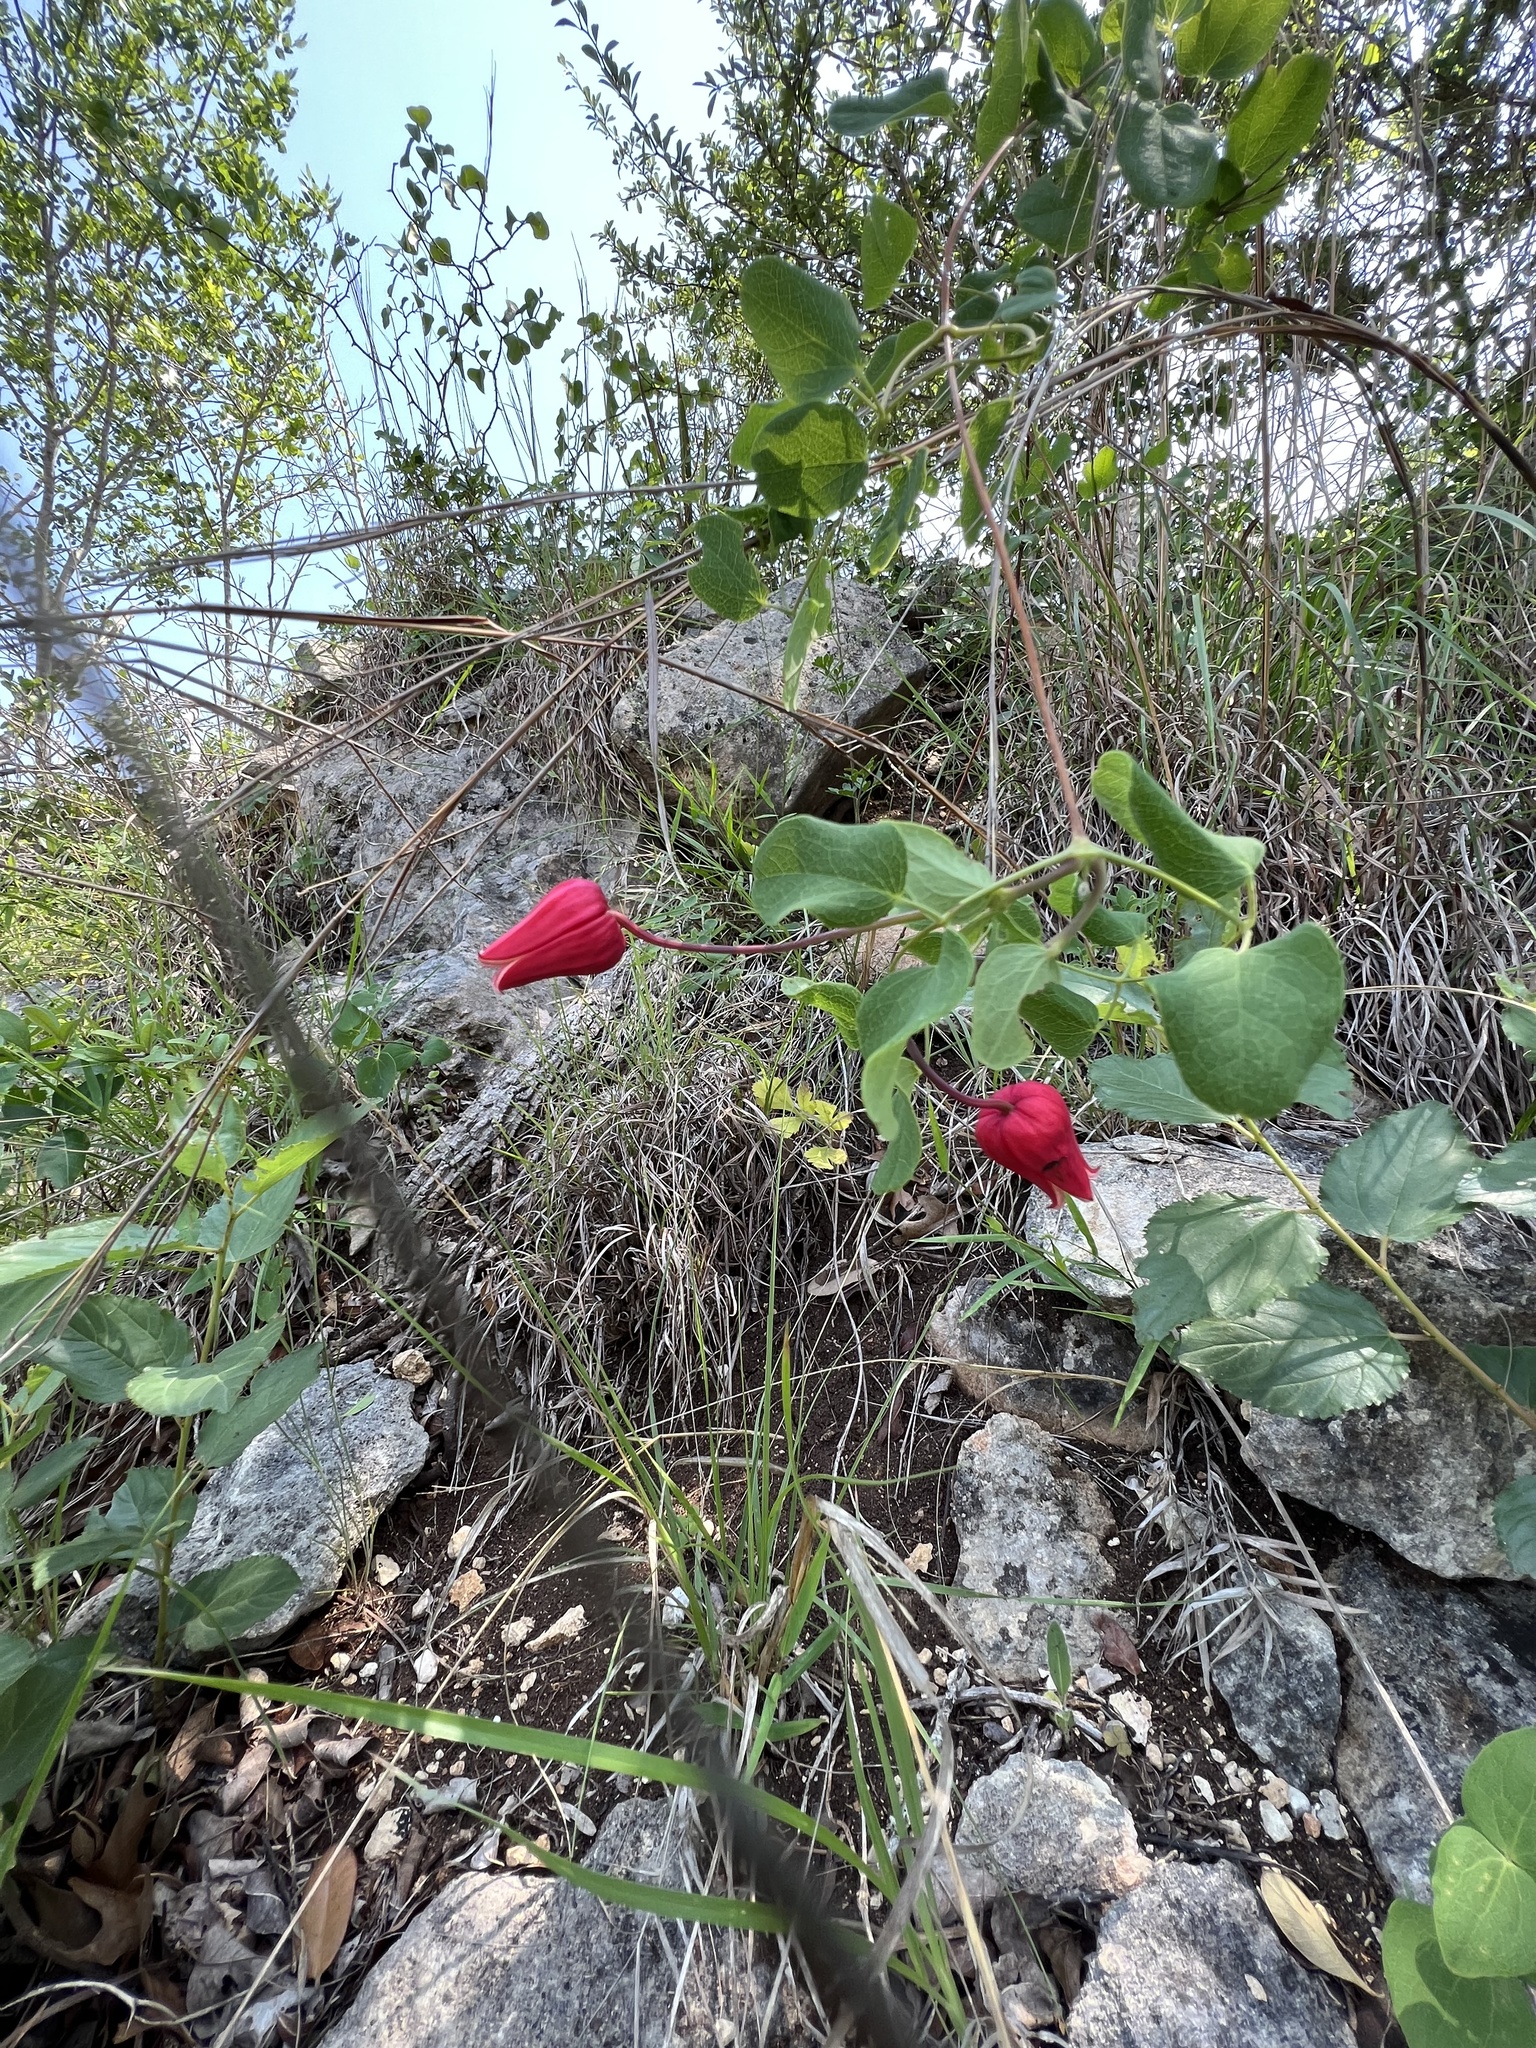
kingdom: Plantae
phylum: Tracheophyta
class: Magnoliopsida
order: Ranunculales
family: Ranunculaceae
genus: Clematis
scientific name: Clematis texensis
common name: Crimson clematis
